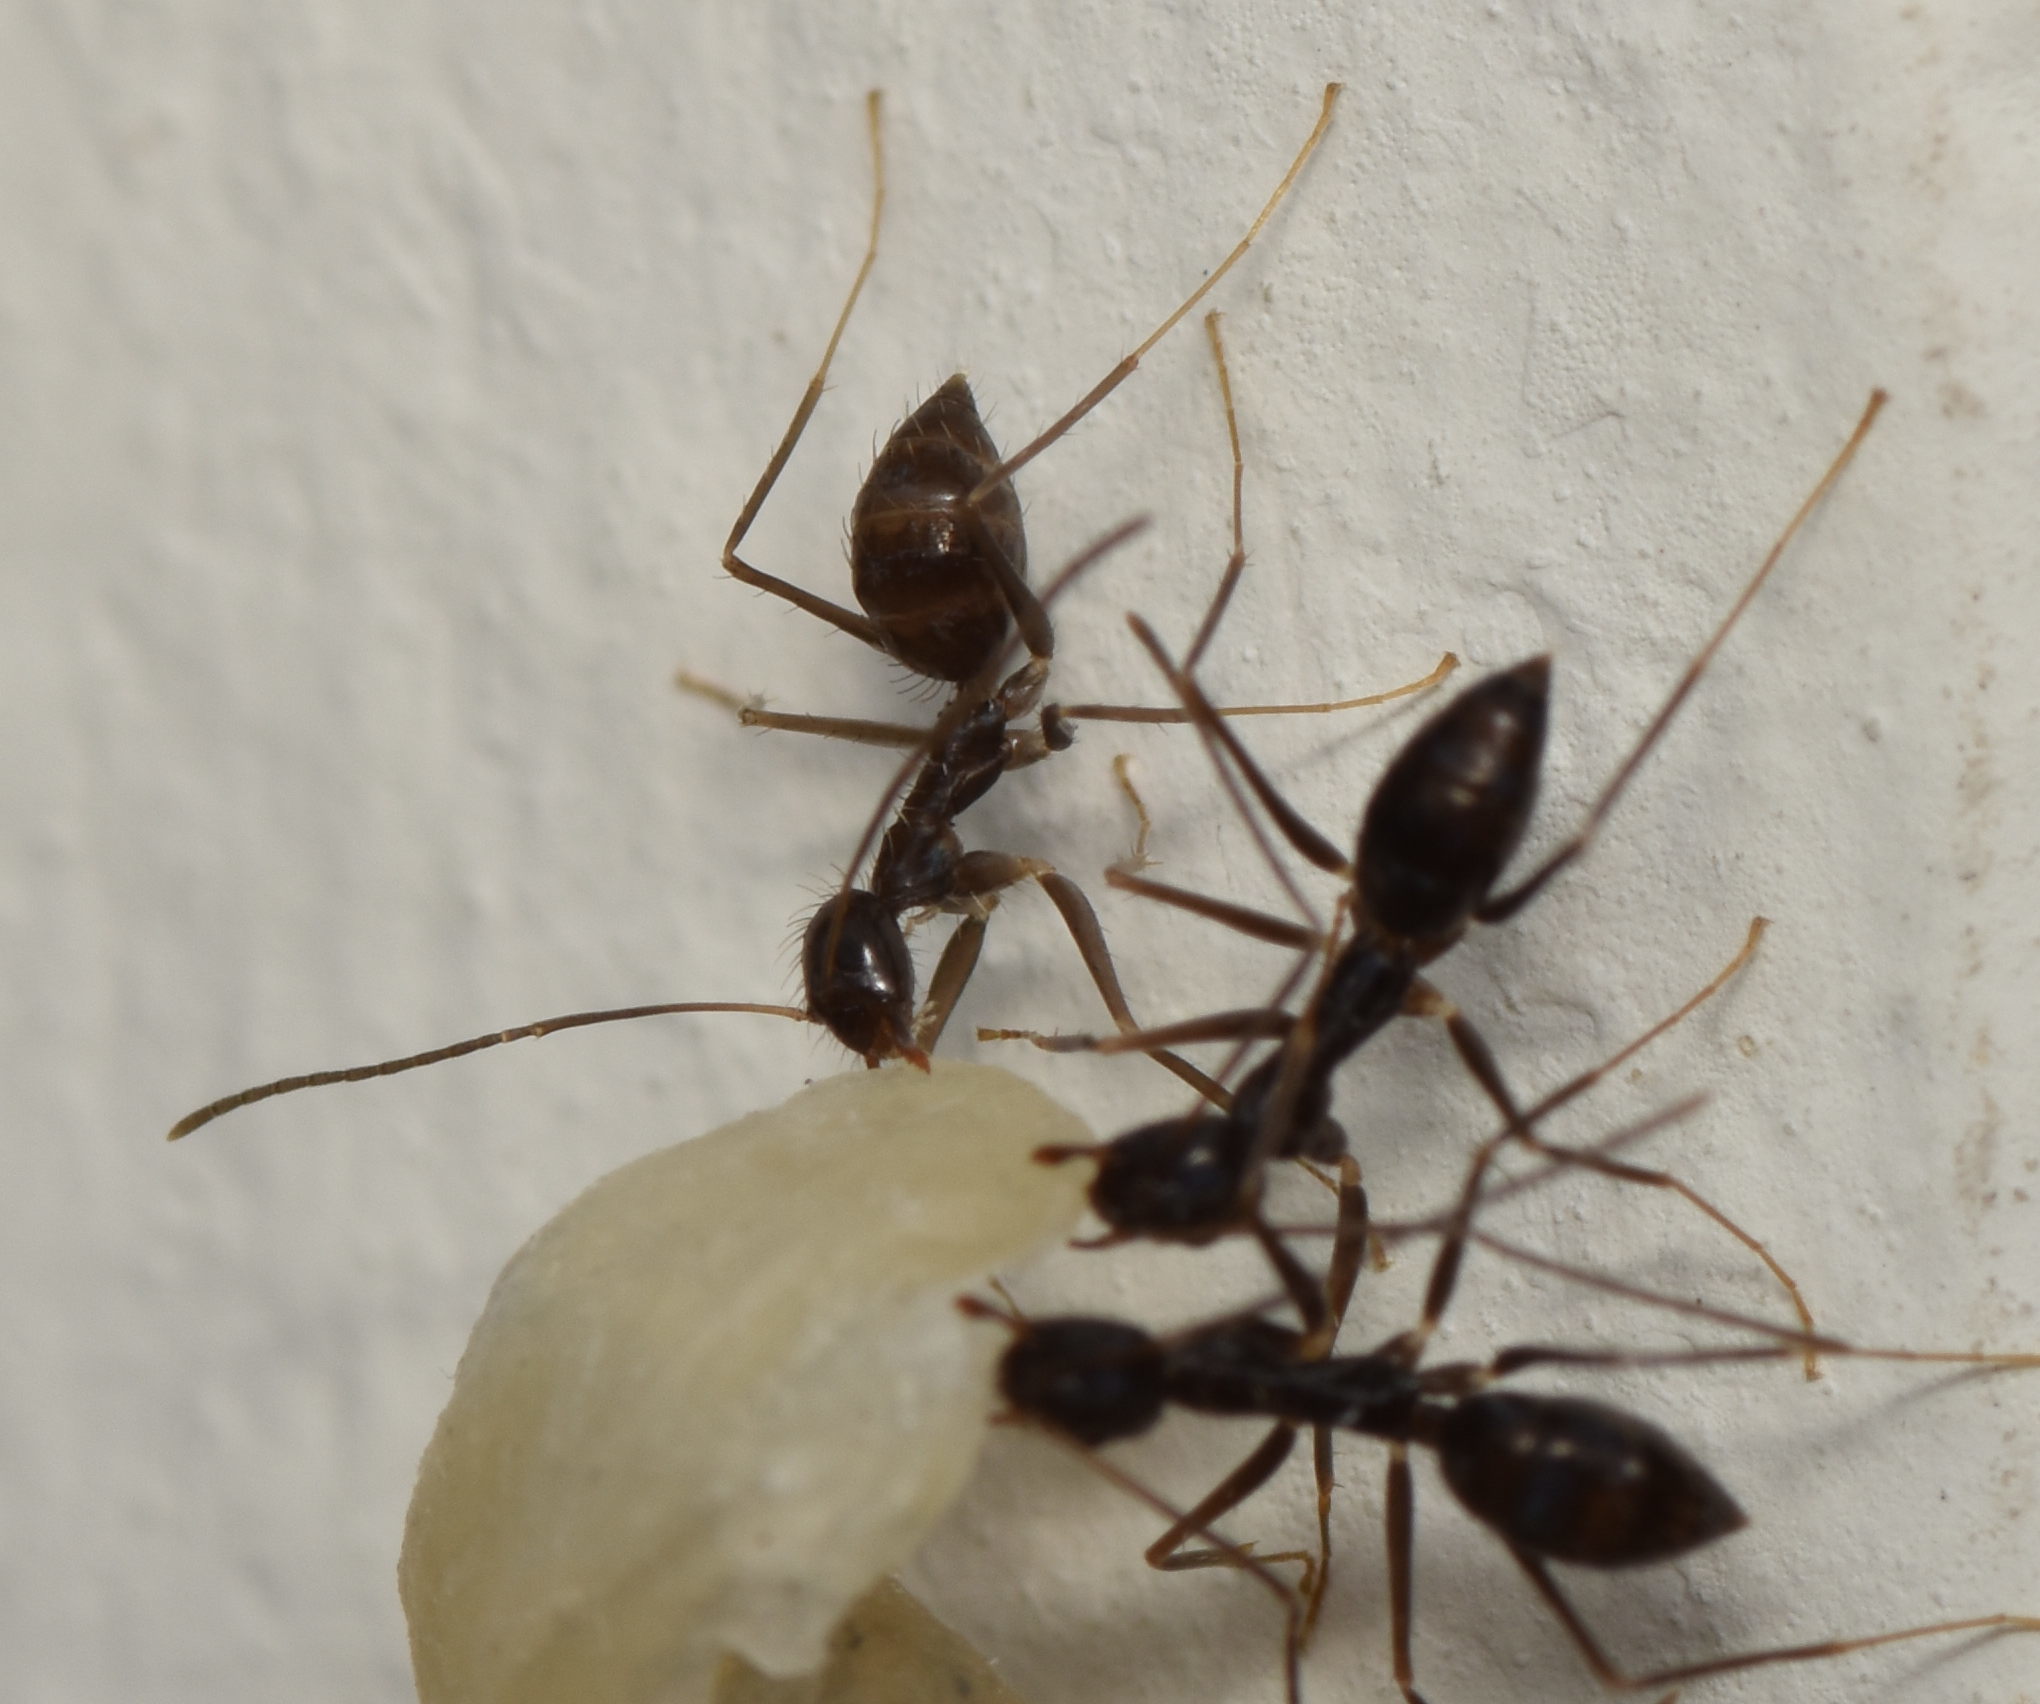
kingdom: Animalia
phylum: Arthropoda
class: Insecta
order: Hymenoptera
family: Formicidae
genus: Paratrechina
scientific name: Paratrechina longicornis
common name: Longhorned crazy ant
